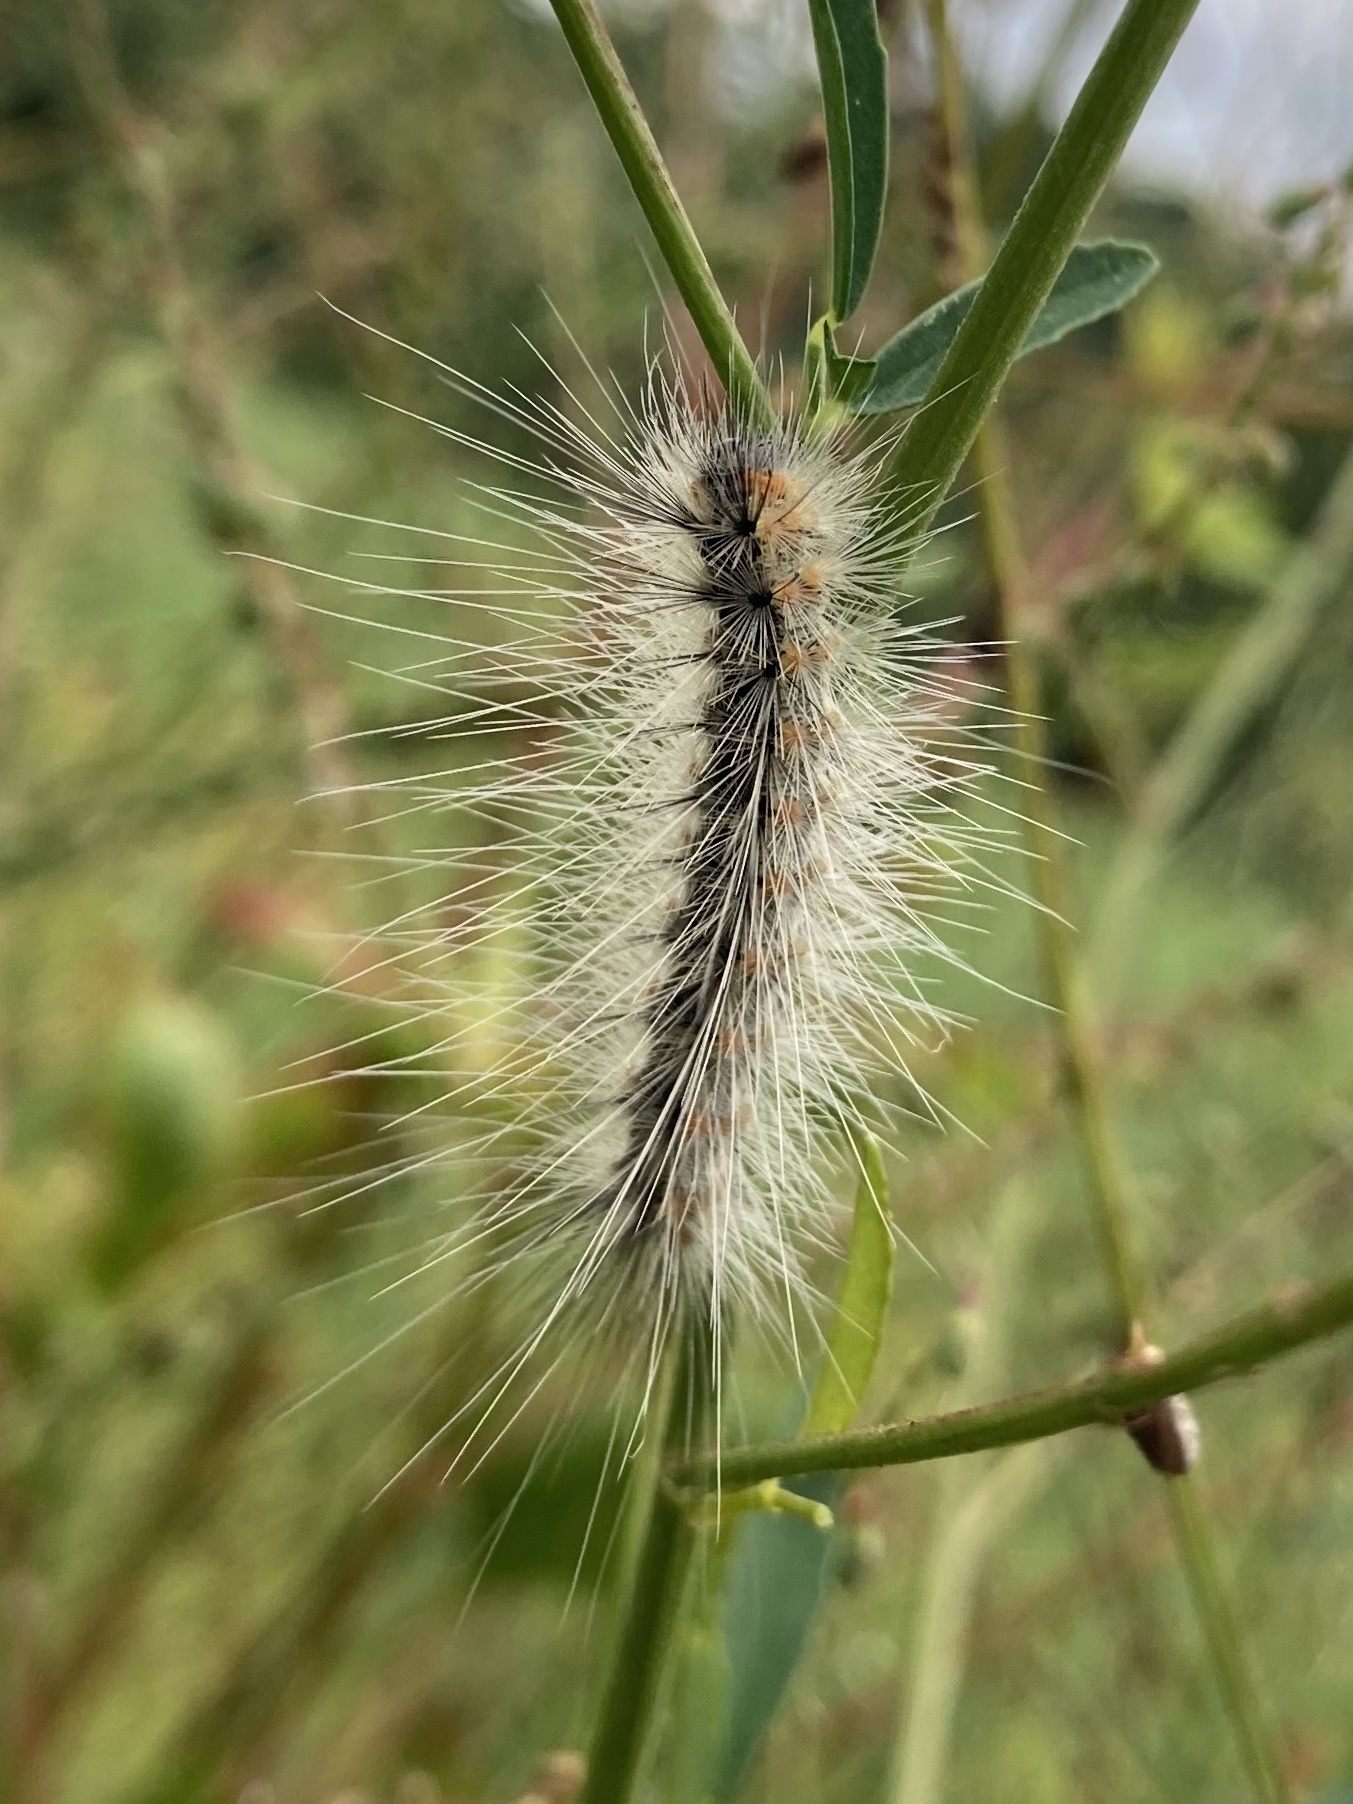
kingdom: Animalia
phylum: Arthropoda
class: Insecta
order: Lepidoptera
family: Erebidae
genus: Hyphantria
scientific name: Hyphantria cunea
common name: American white moth
